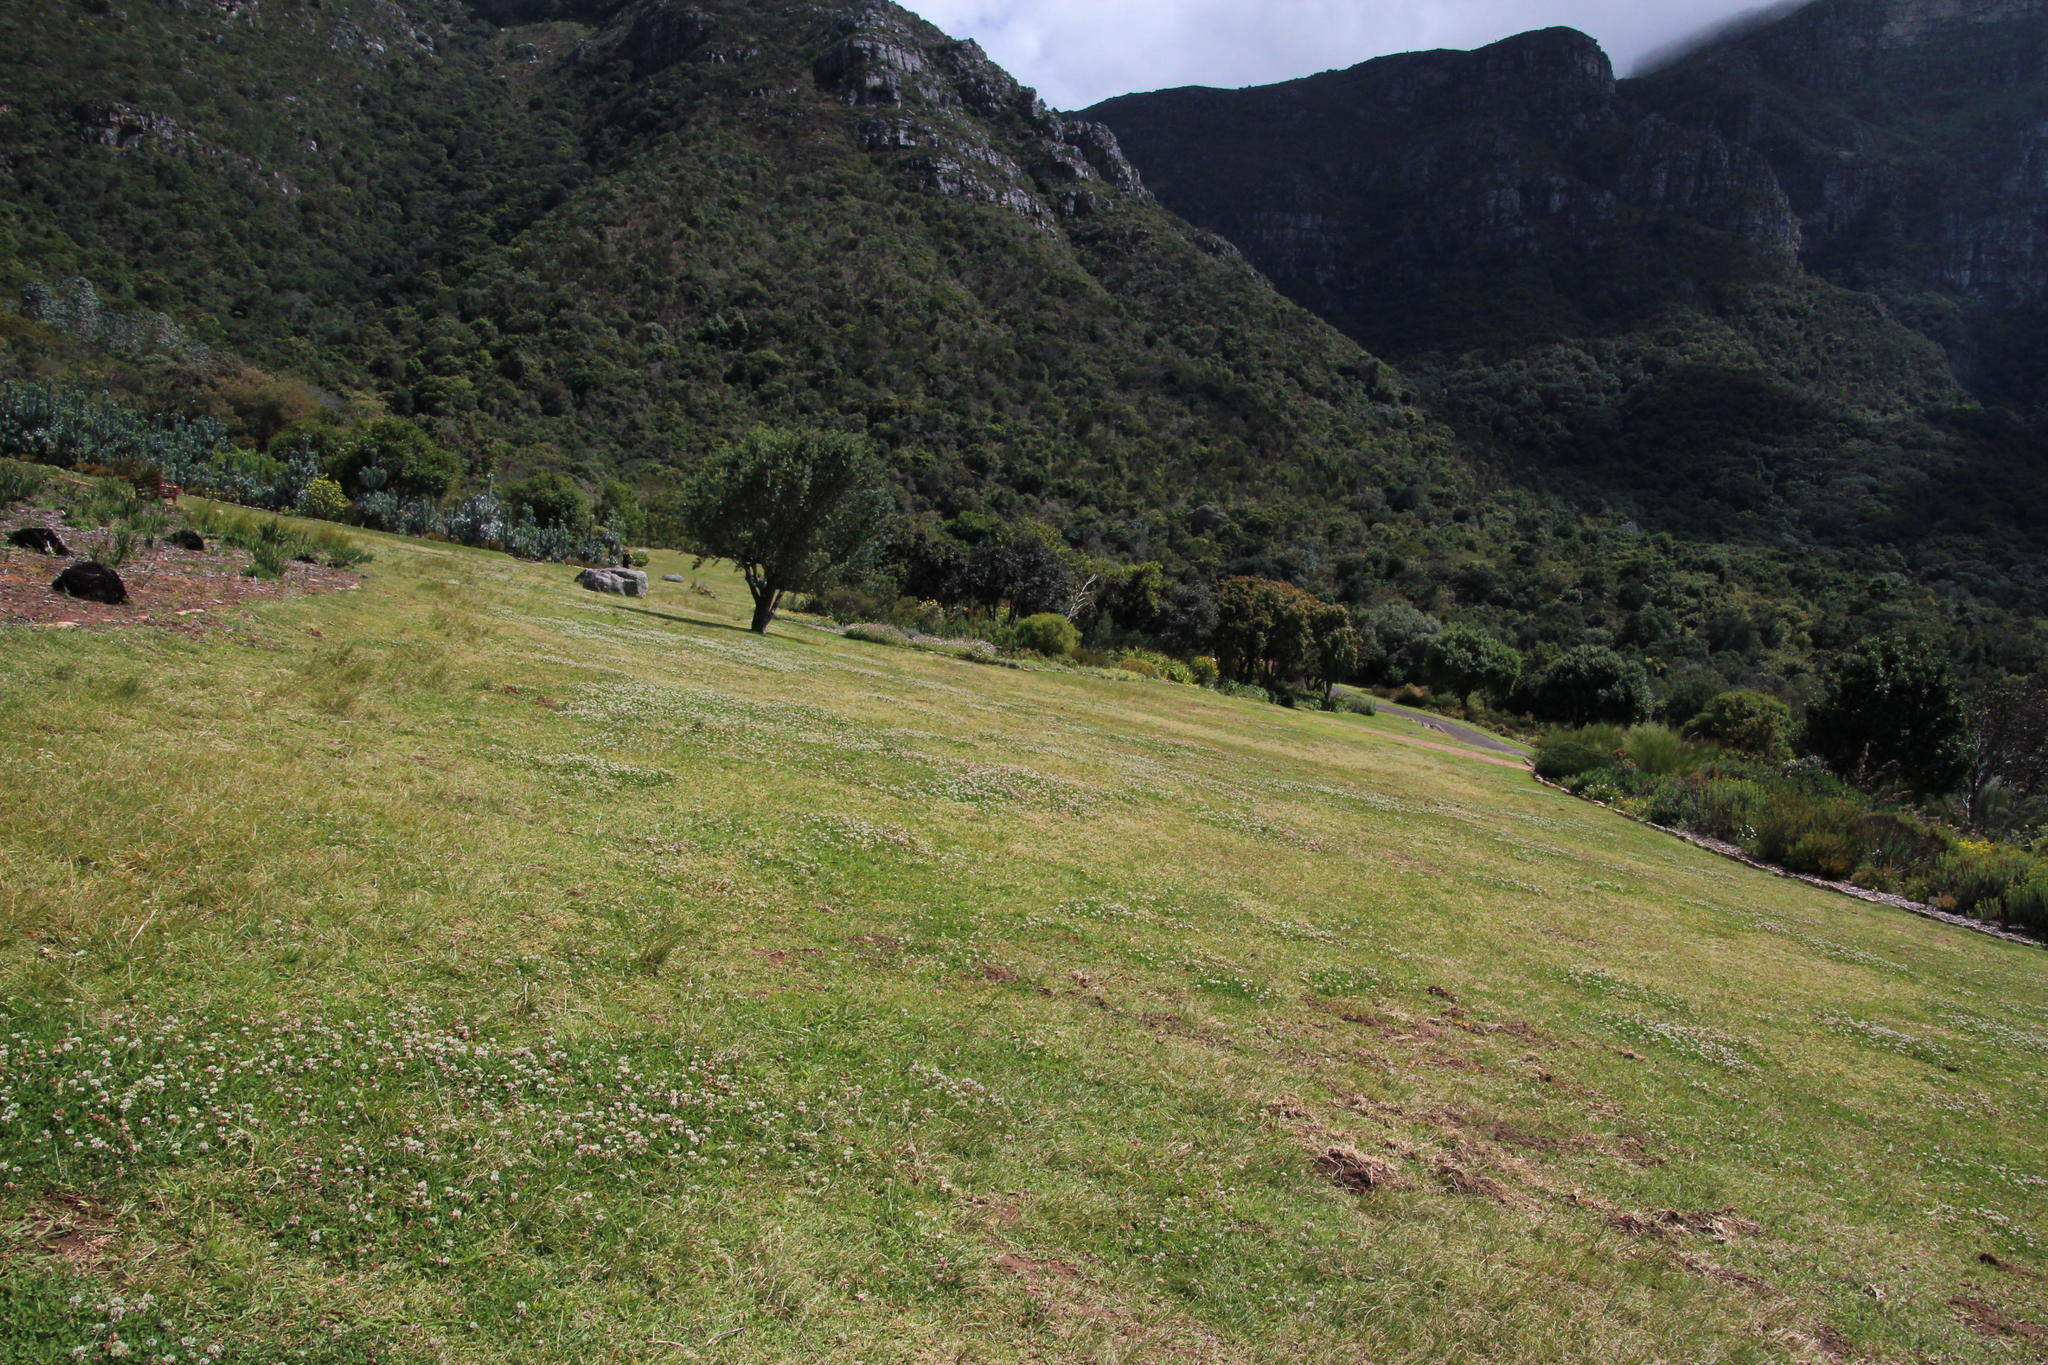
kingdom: Plantae
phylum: Tracheophyta
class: Magnoliopsida
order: Fabales
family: Fabaceae
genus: Trifolium
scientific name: Trifolium repens
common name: White clover
